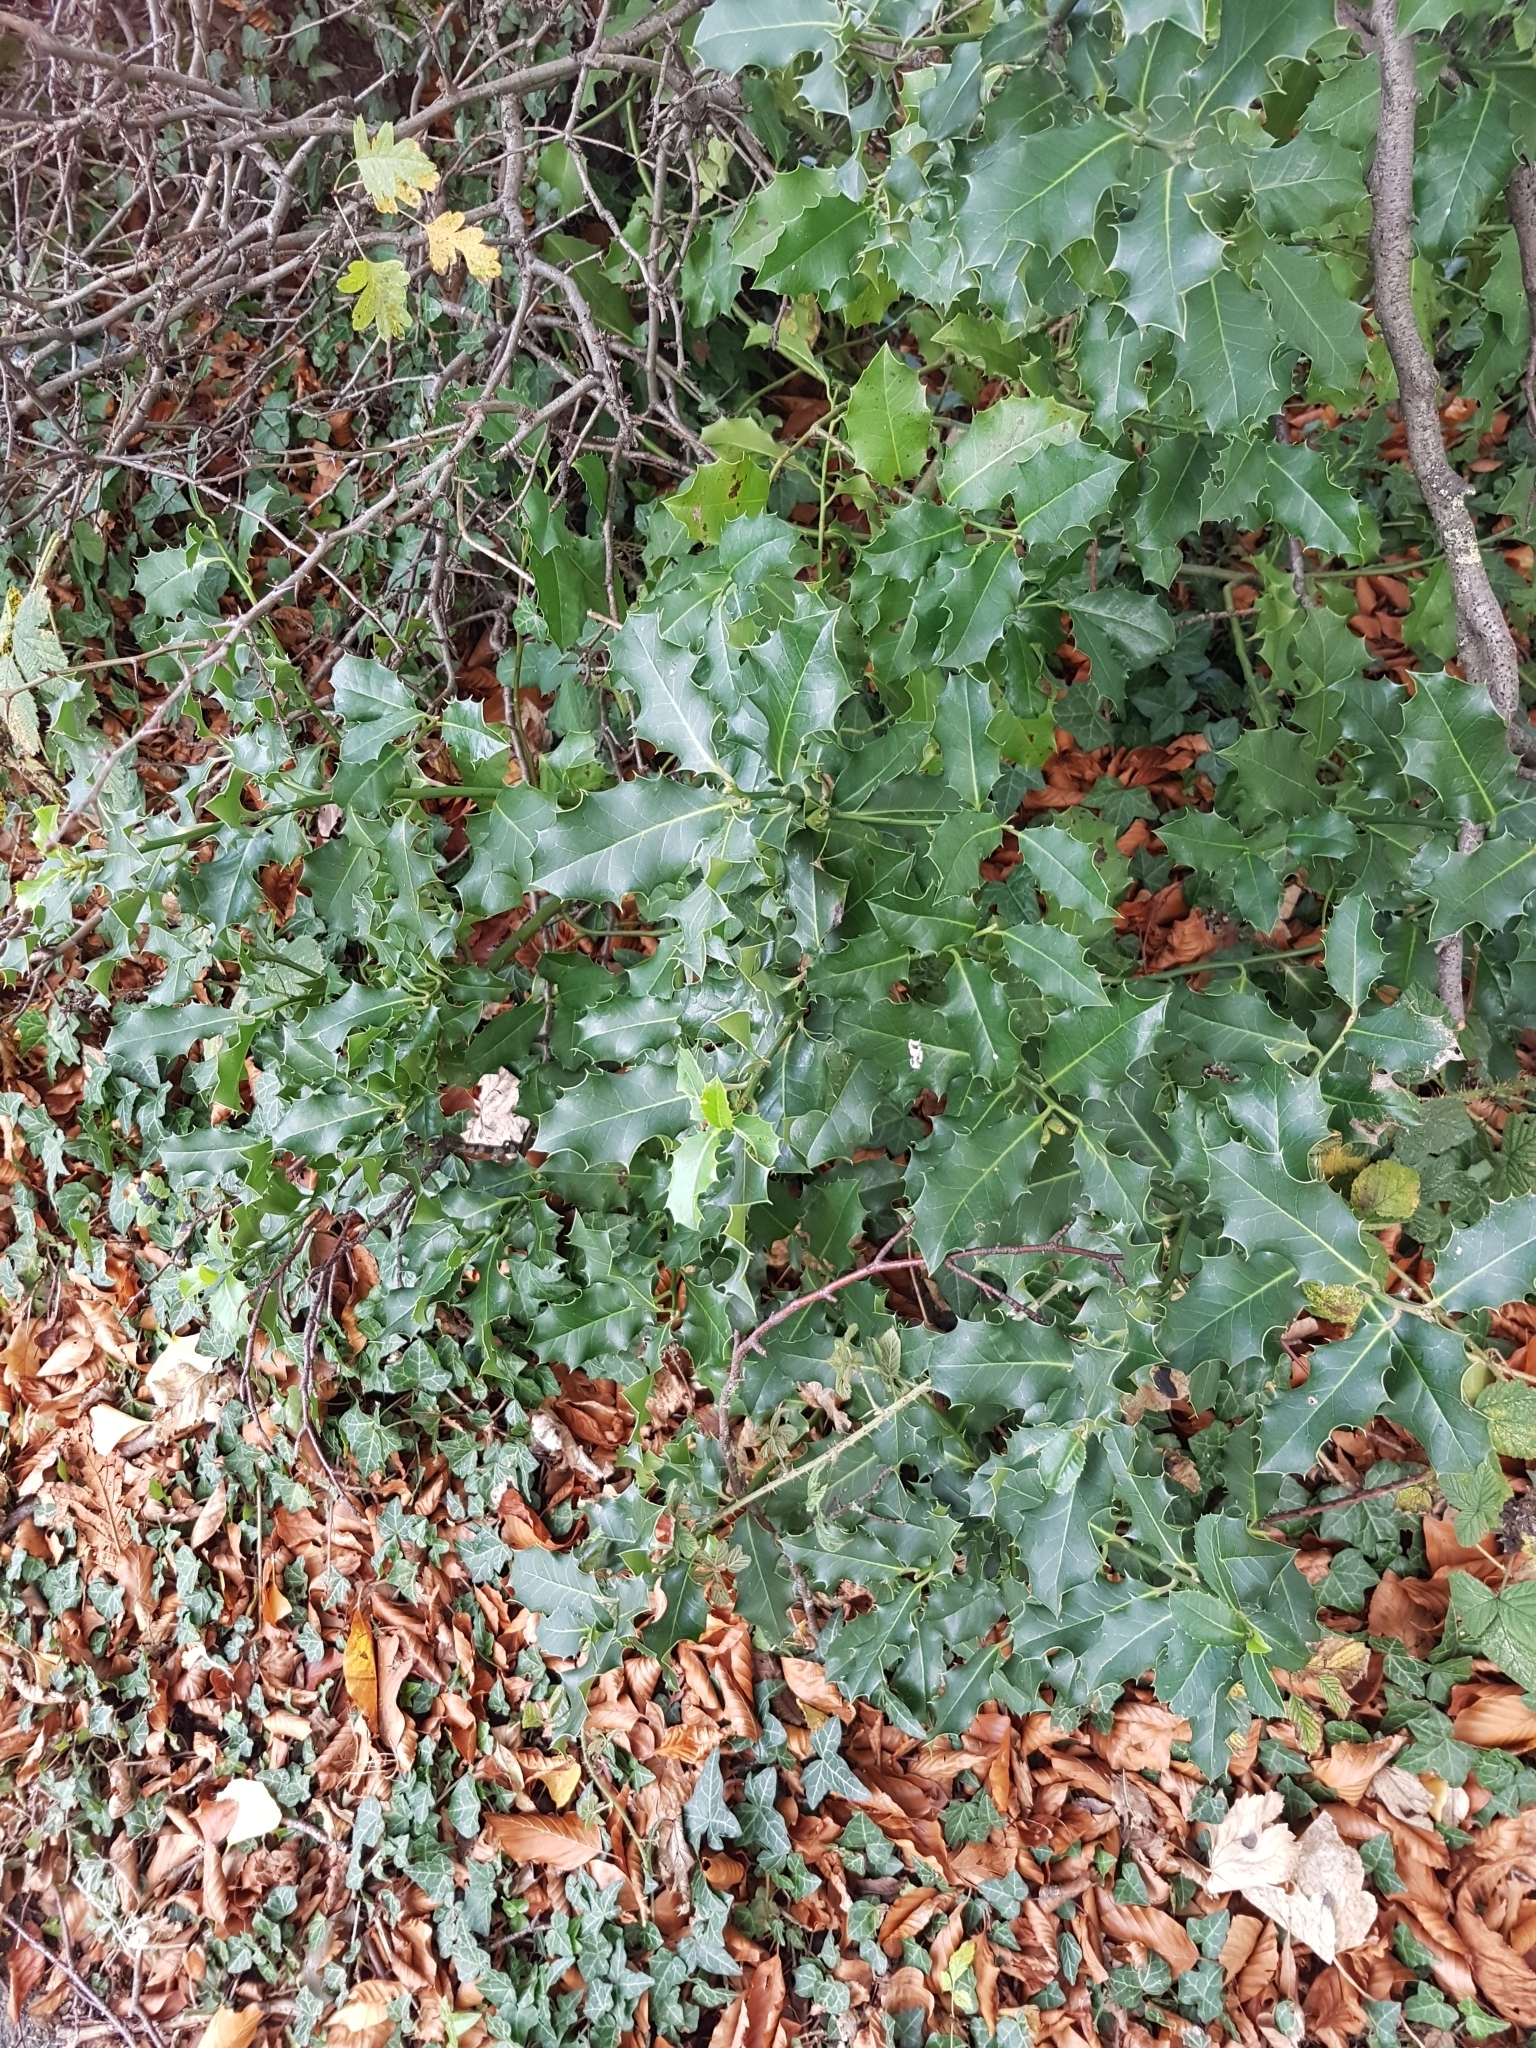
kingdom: Plantae
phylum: Tracheophyta
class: Magnoliopsida
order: Aquifoliales
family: Aquifoliaceae
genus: Ilex
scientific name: Ilex aquifolium
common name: English holly
